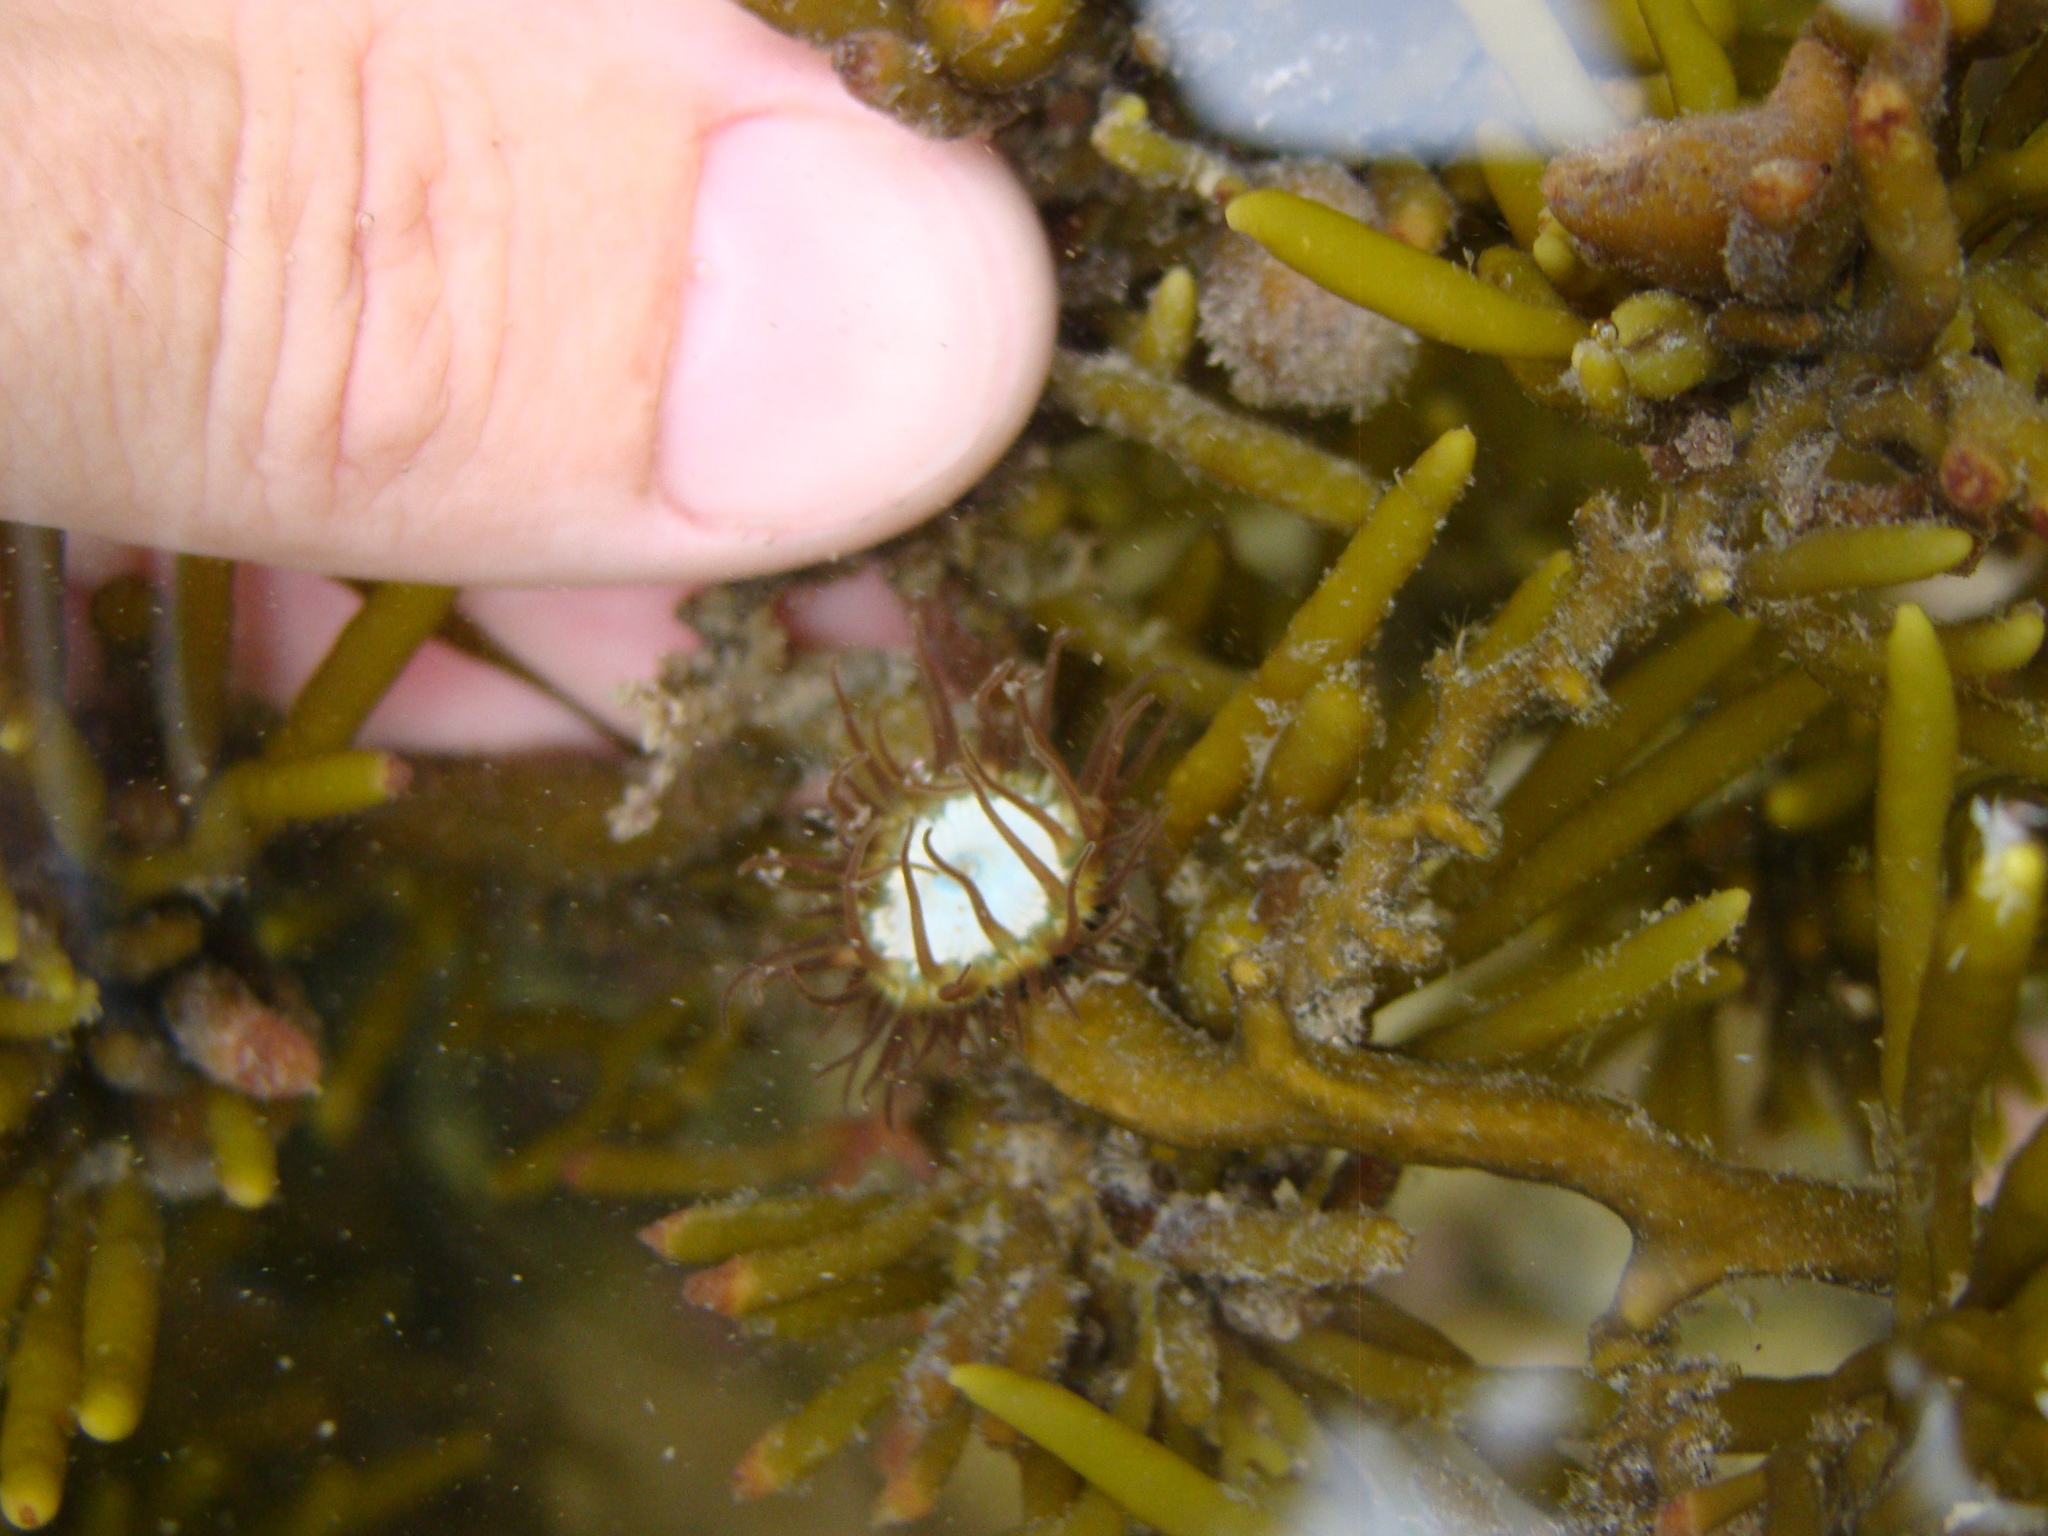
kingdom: Animalia
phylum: Cnidaria
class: Anthozoa
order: Actiniaria
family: Hormathiidae
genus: Handactis
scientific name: Handactis nutrix
